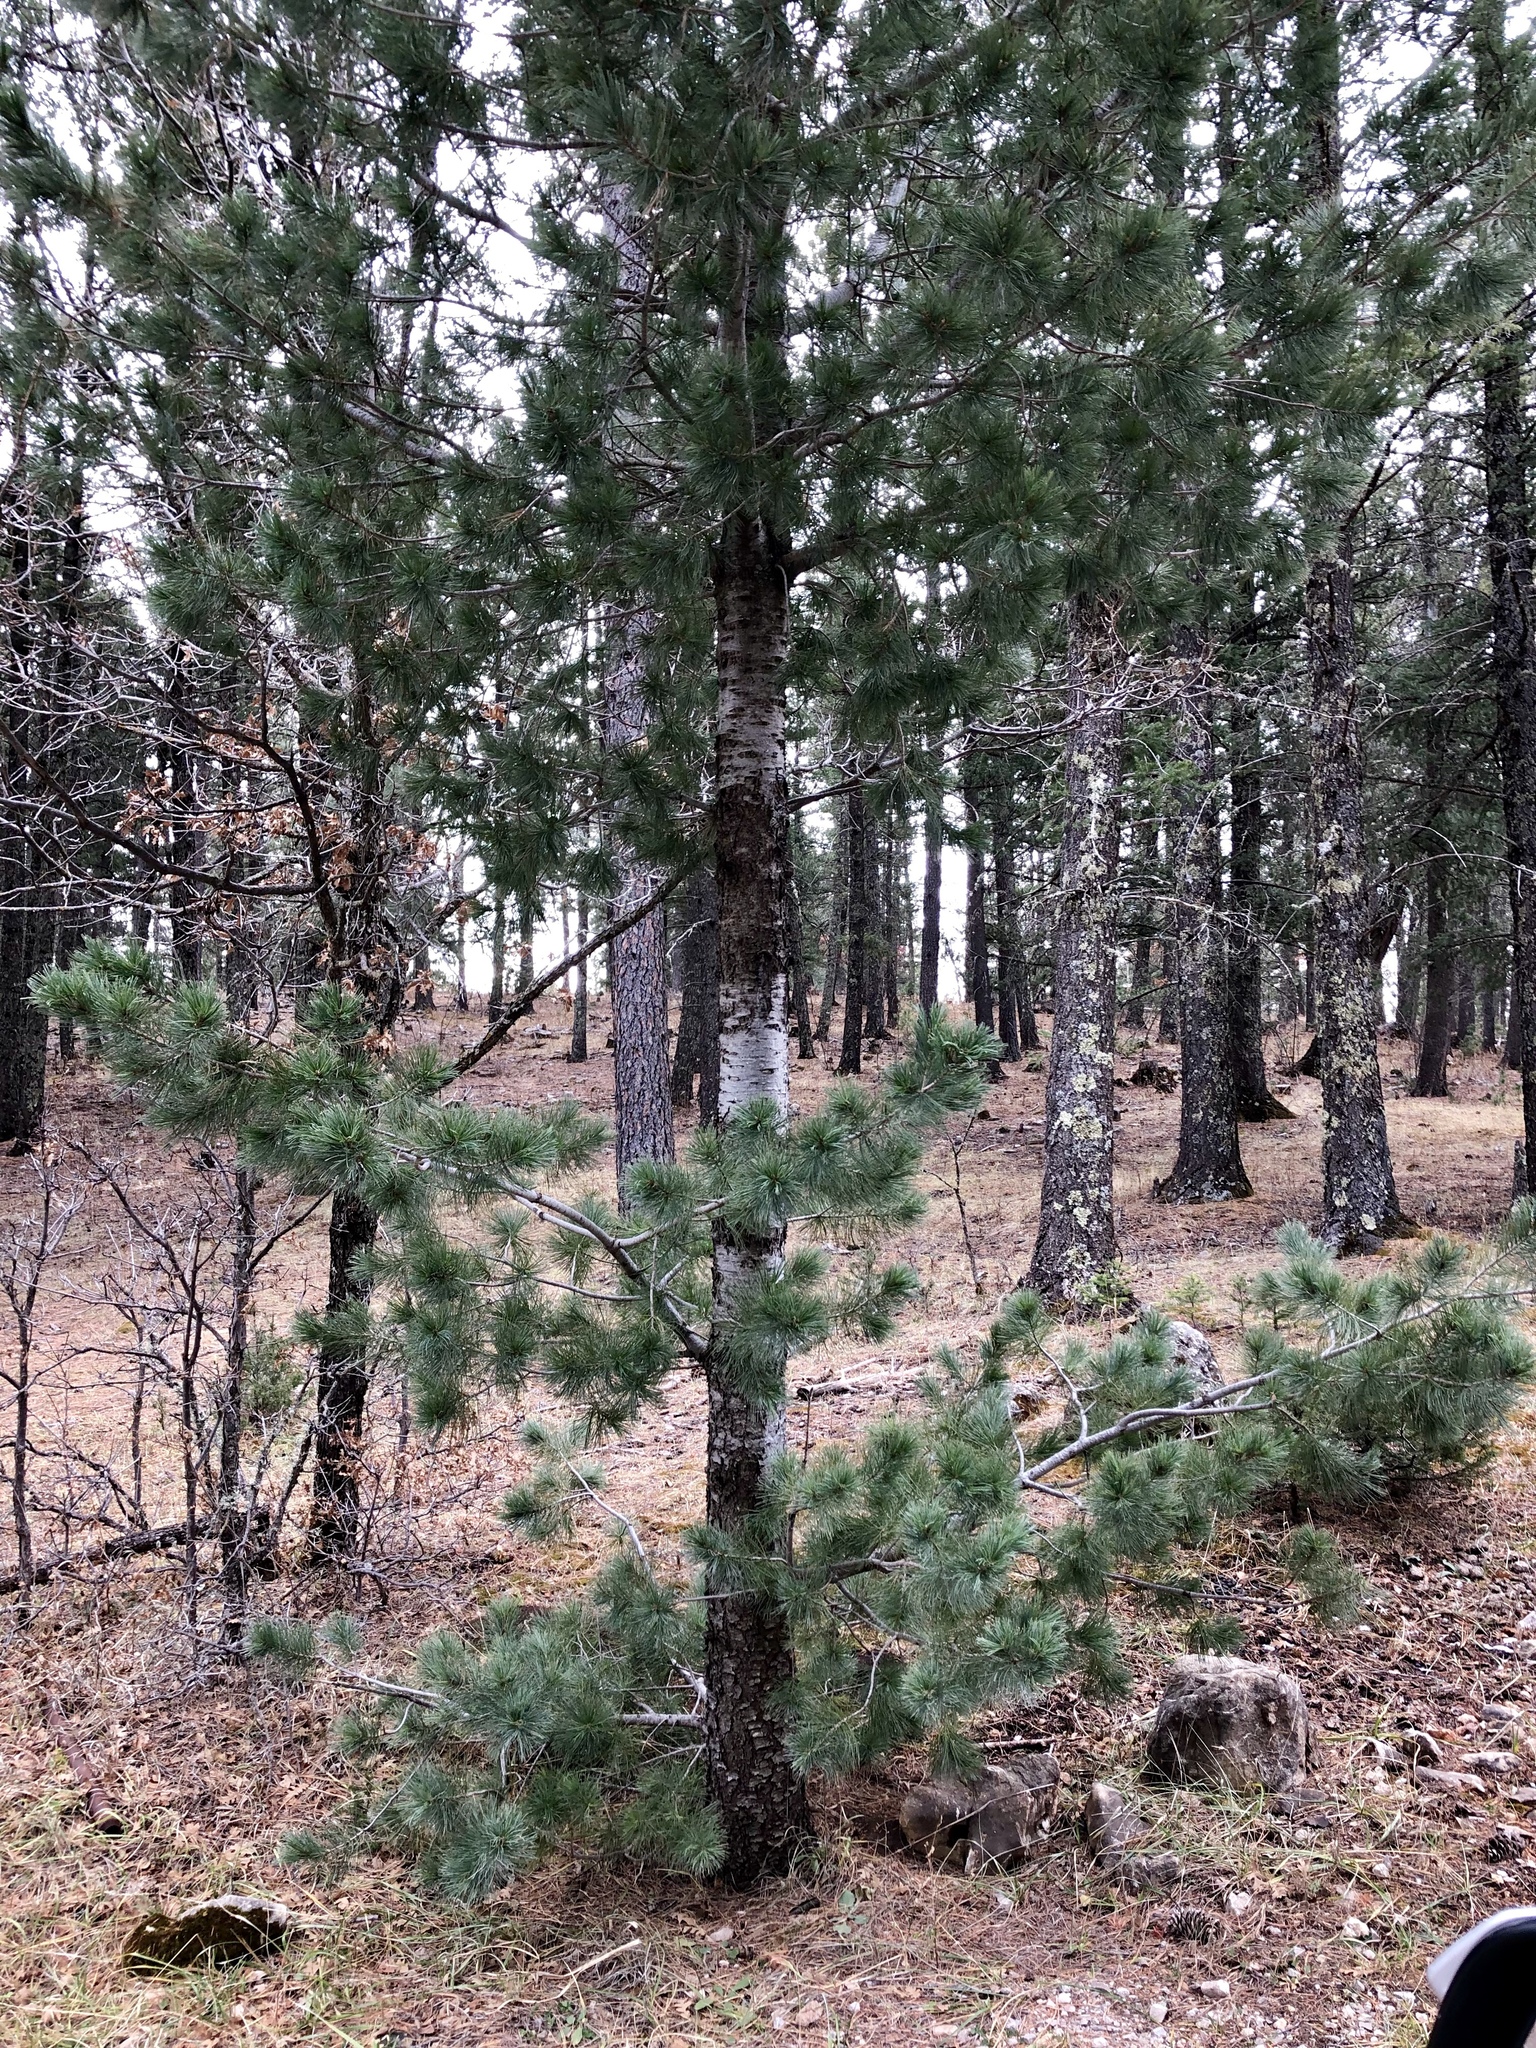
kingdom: Plantae
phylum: Tracheophyta
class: Pinopsida
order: Pinales
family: Pinaceae
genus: Pinus
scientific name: Pinus strobiformis
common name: Southwestern white pine
